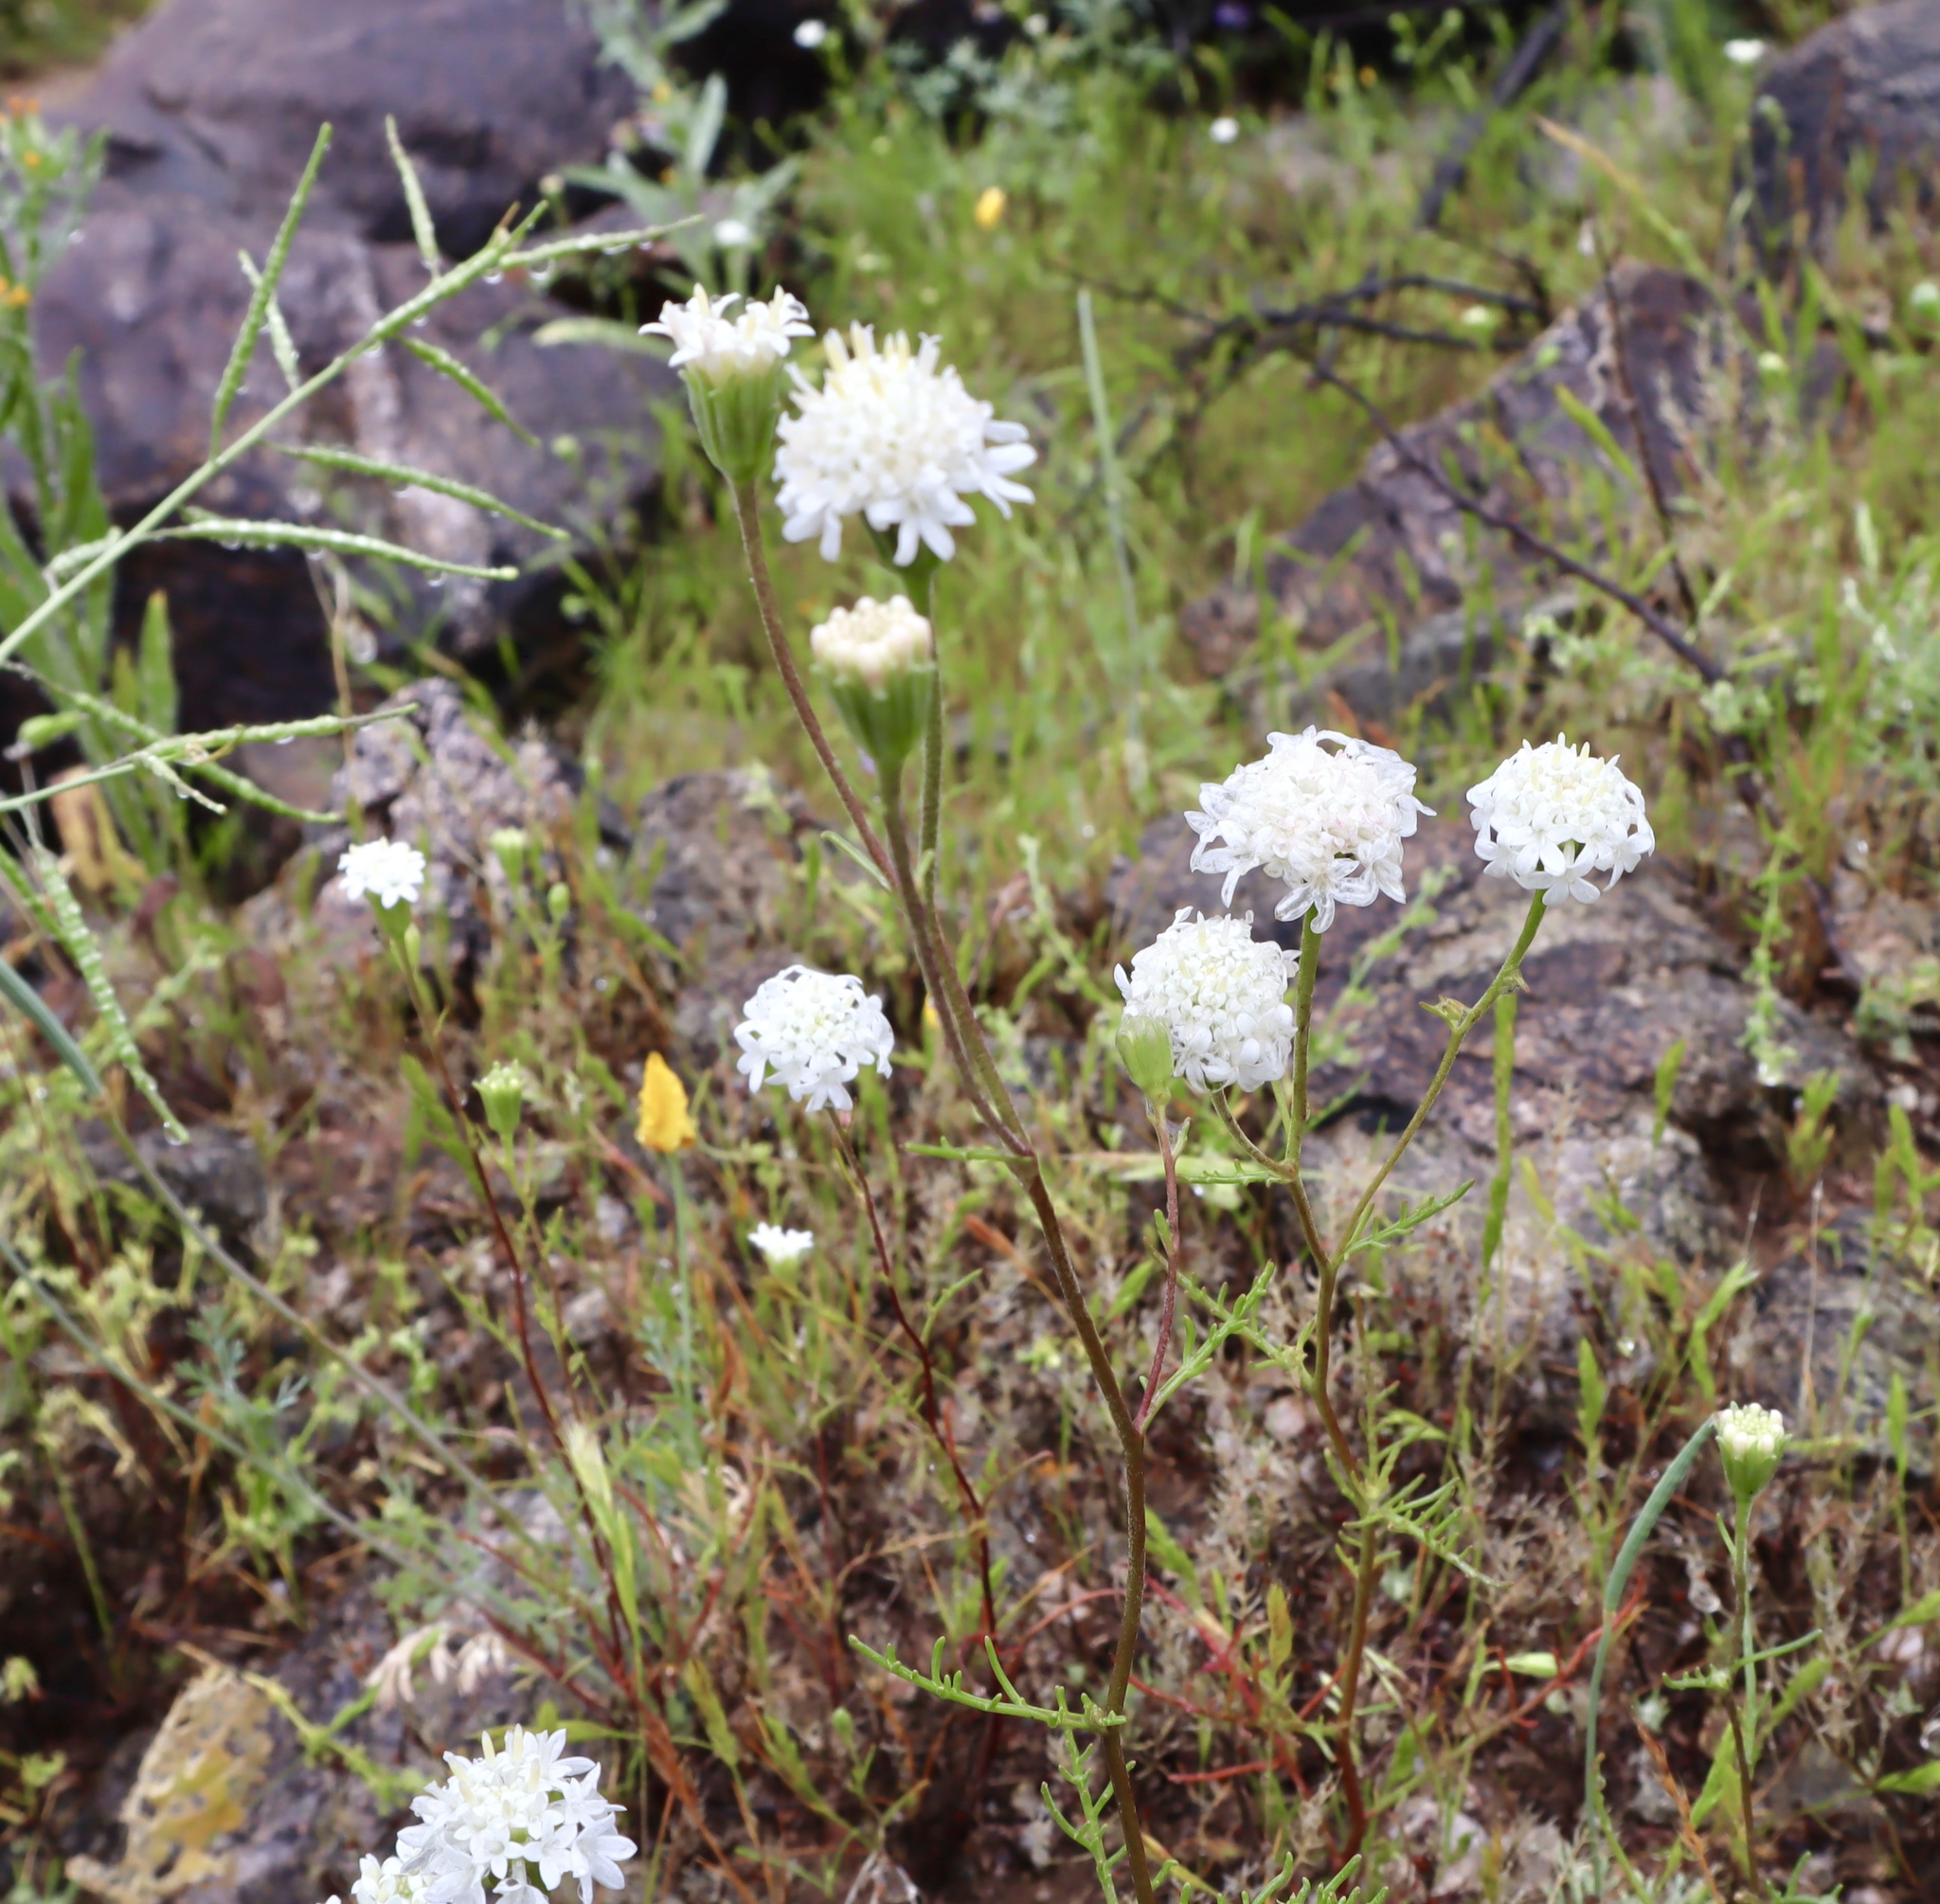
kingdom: Plantae
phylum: Tracheophyta
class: Magnoliopsida
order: Asterales
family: Asteraceae
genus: Chaenactis
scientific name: Chaenactis stevioides
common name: Desert pincushion
